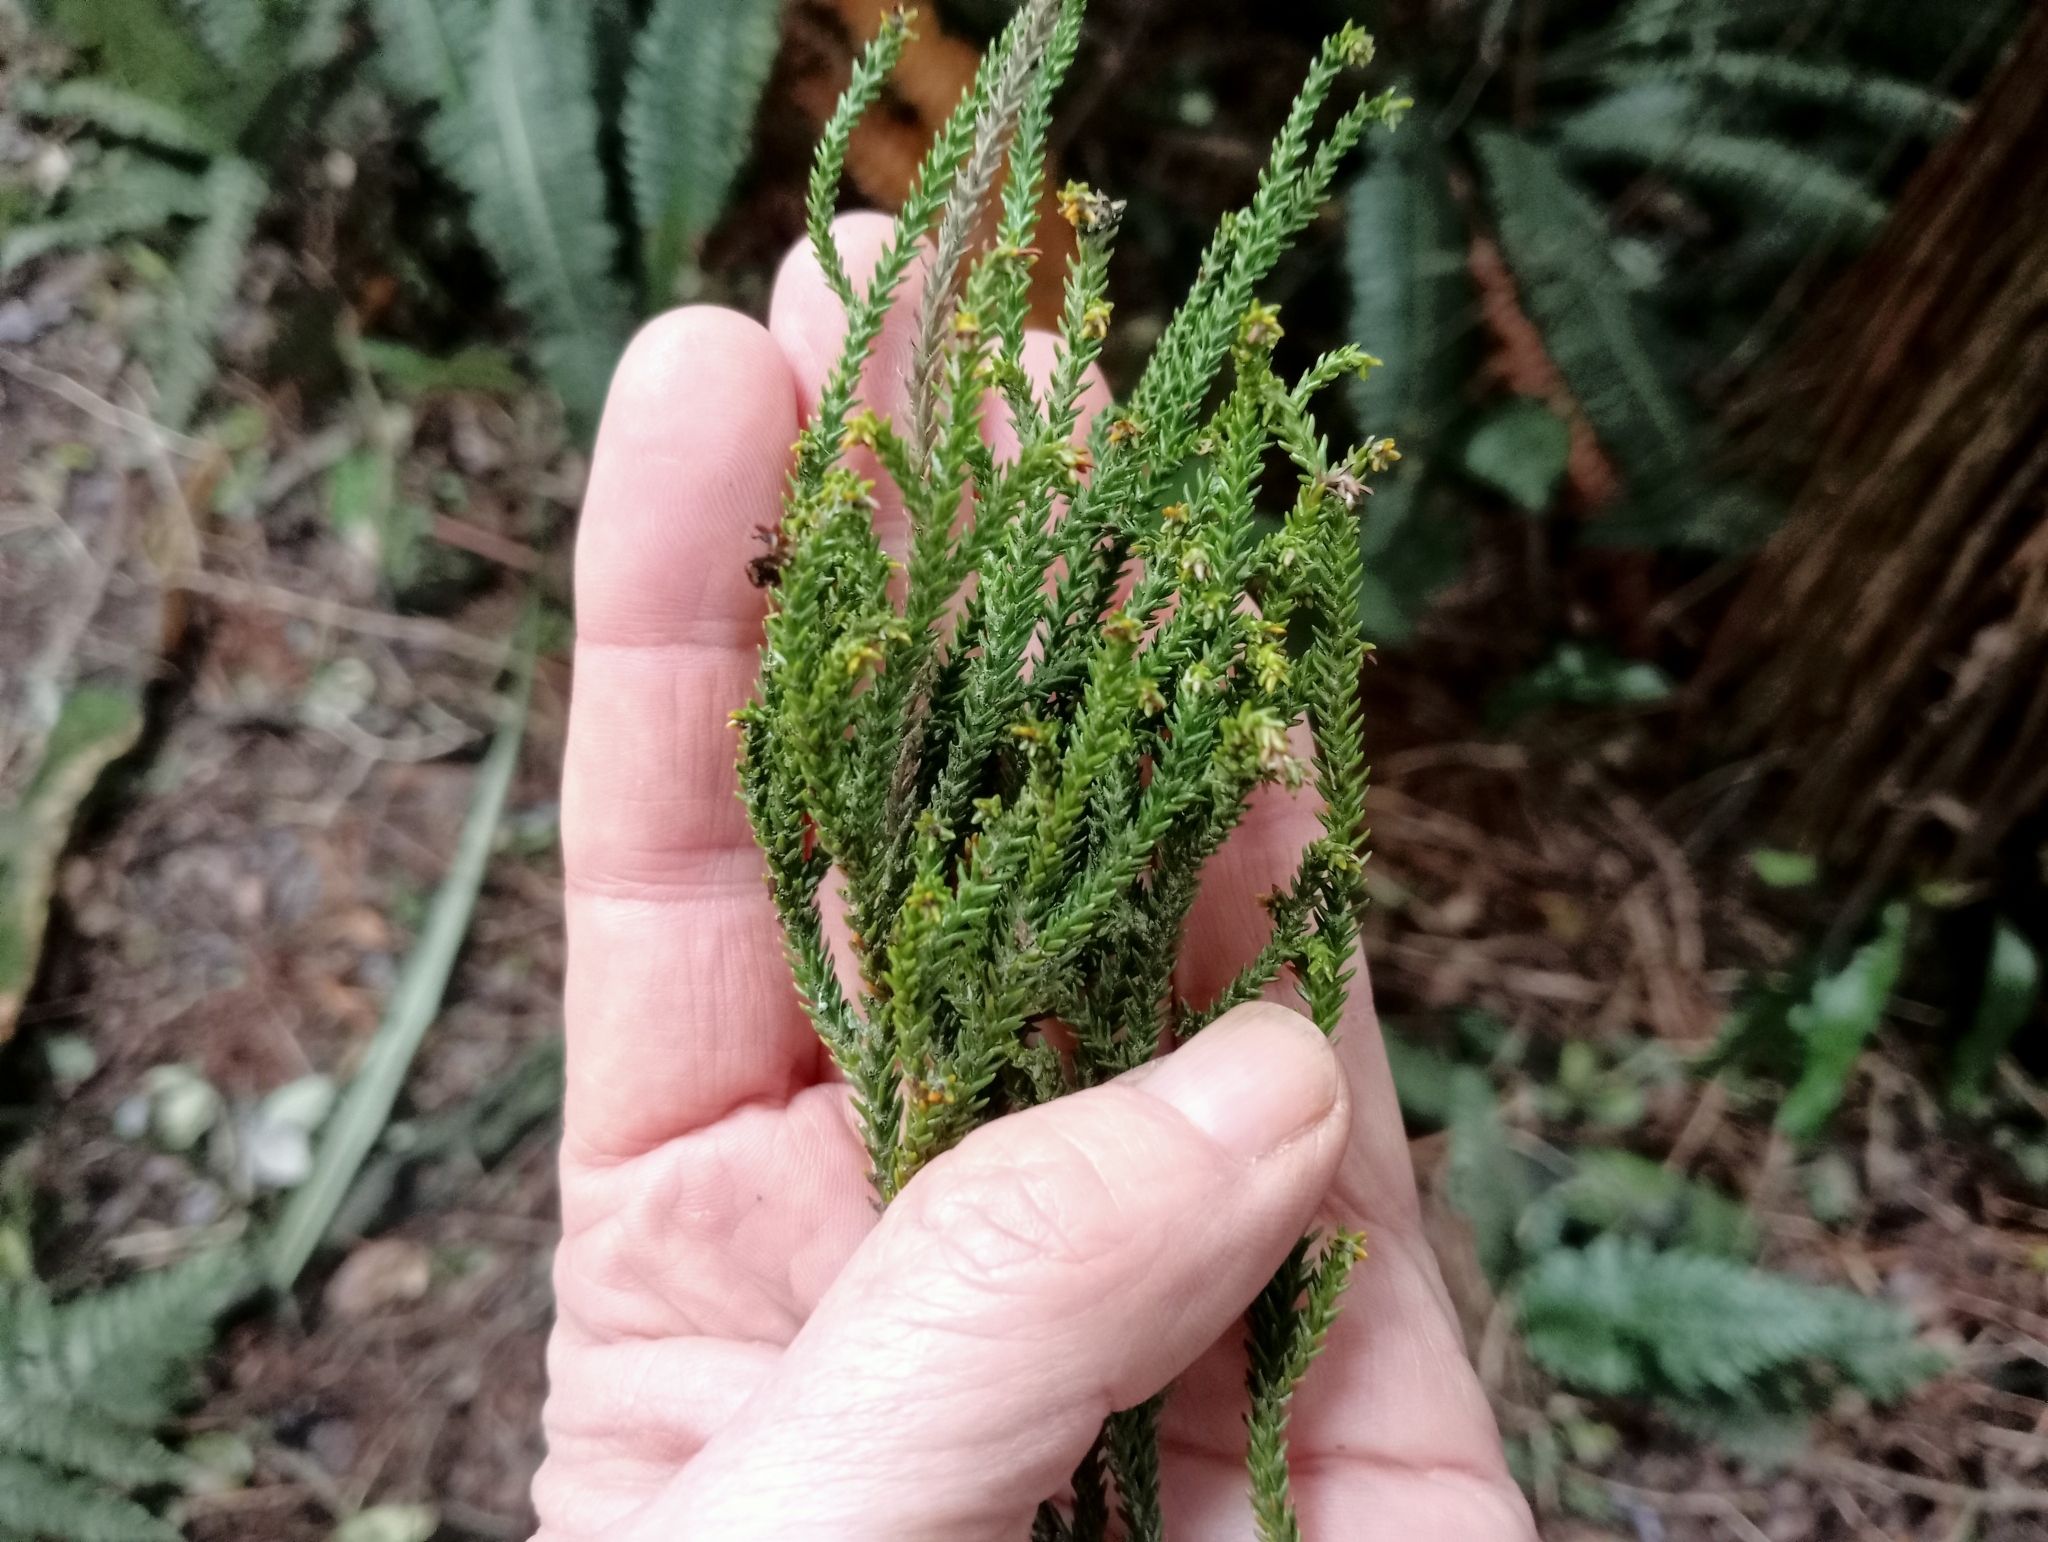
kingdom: Plantae
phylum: Tracheophyta
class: Pinopsida
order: Pinales
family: Podocarpaceae
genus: Dacrydium
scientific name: Dacrydium cupressinum
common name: Red pine
